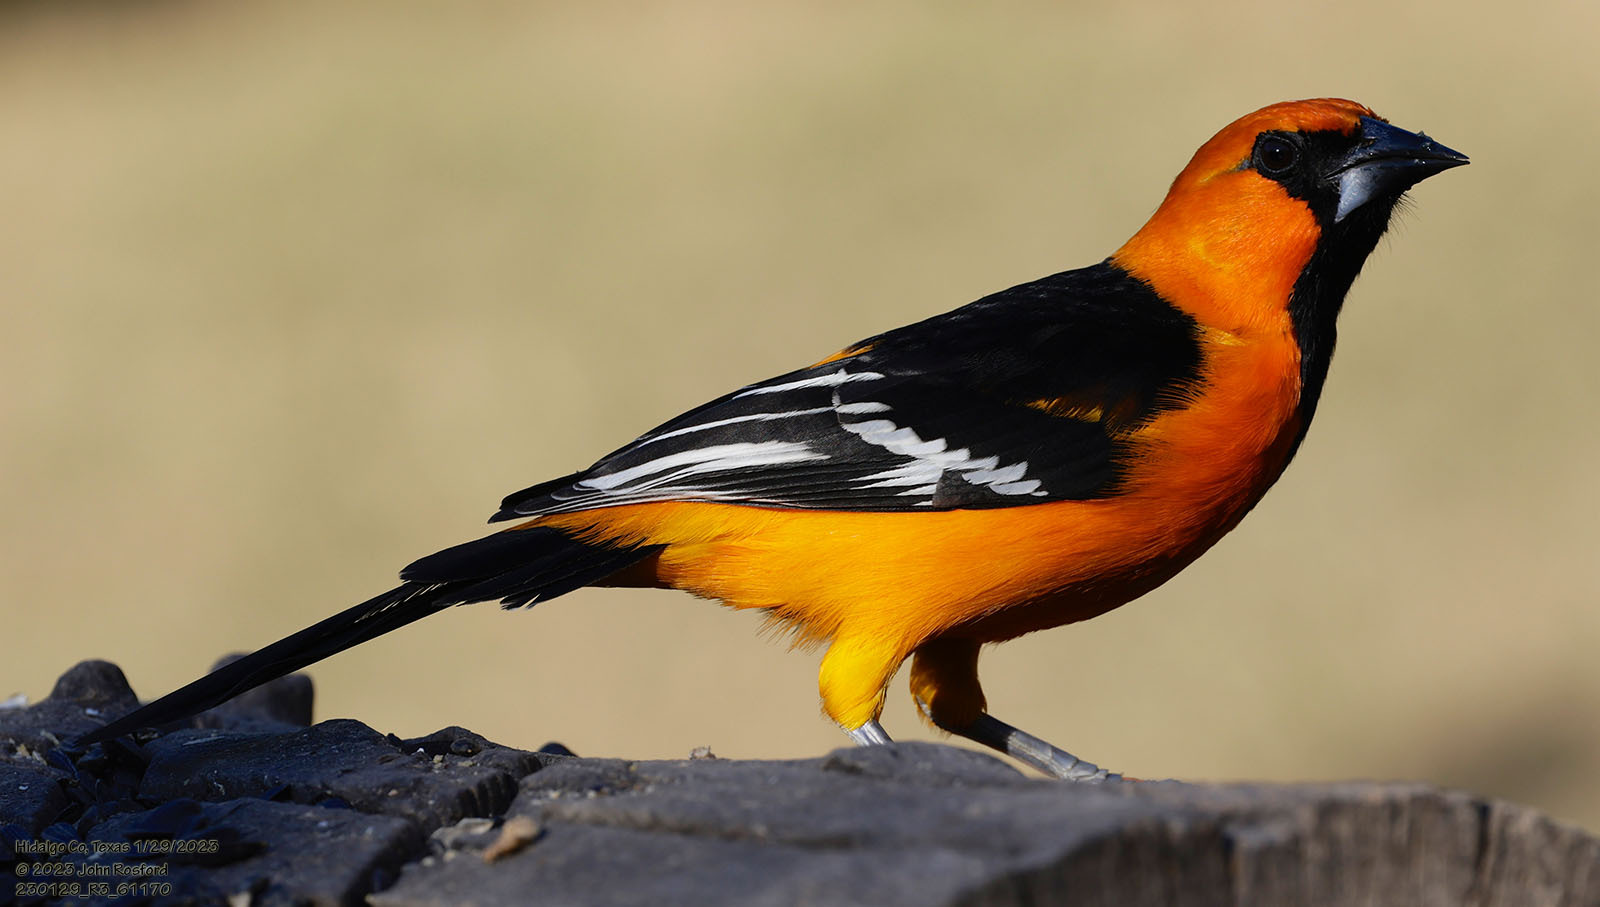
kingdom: Animalia
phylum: Chordata
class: Aves
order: Passeriformes
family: Icteridae
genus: Icterus
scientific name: Icterus gularis
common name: Altamira oriole
